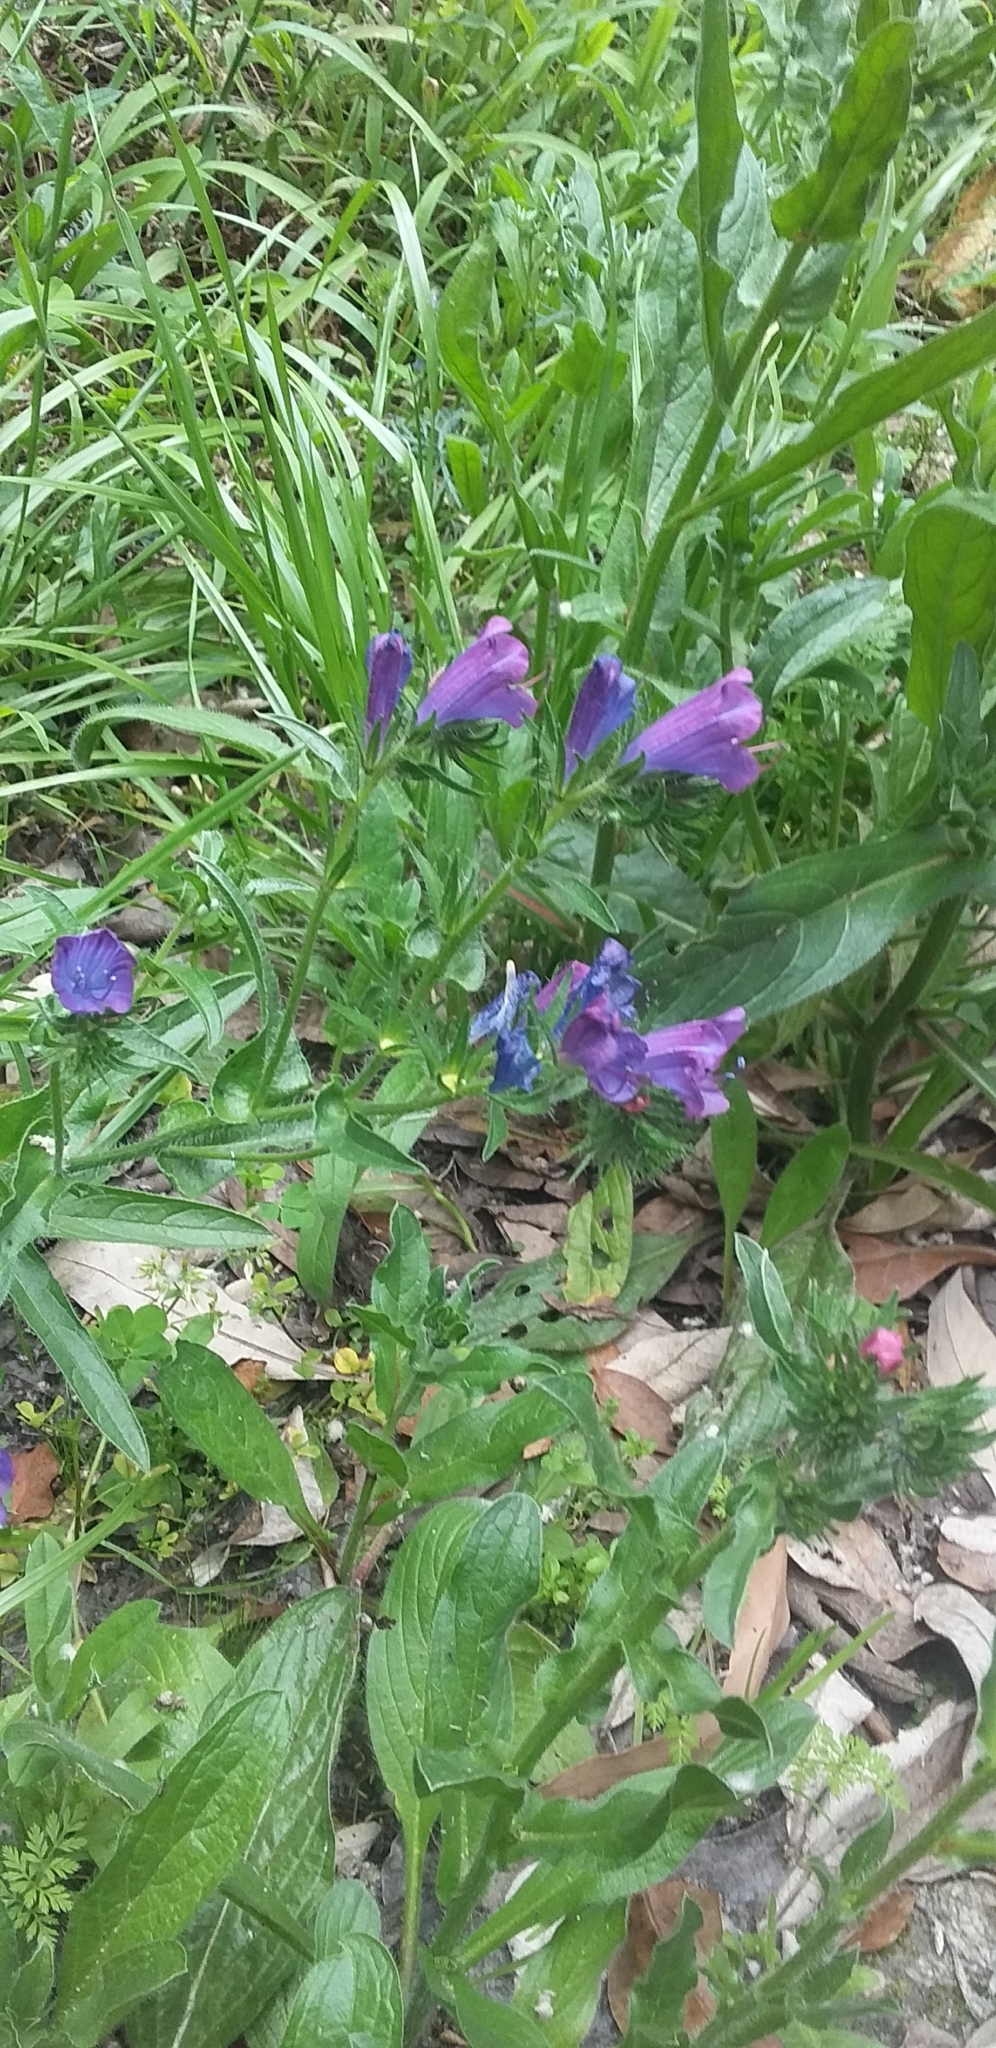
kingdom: Plantae
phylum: Tracheophyta
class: Magnoliopsida
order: Boraginales
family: Boraginaceae
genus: Echium
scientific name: Echium plantagineum
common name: Purple viper's-bugloss
